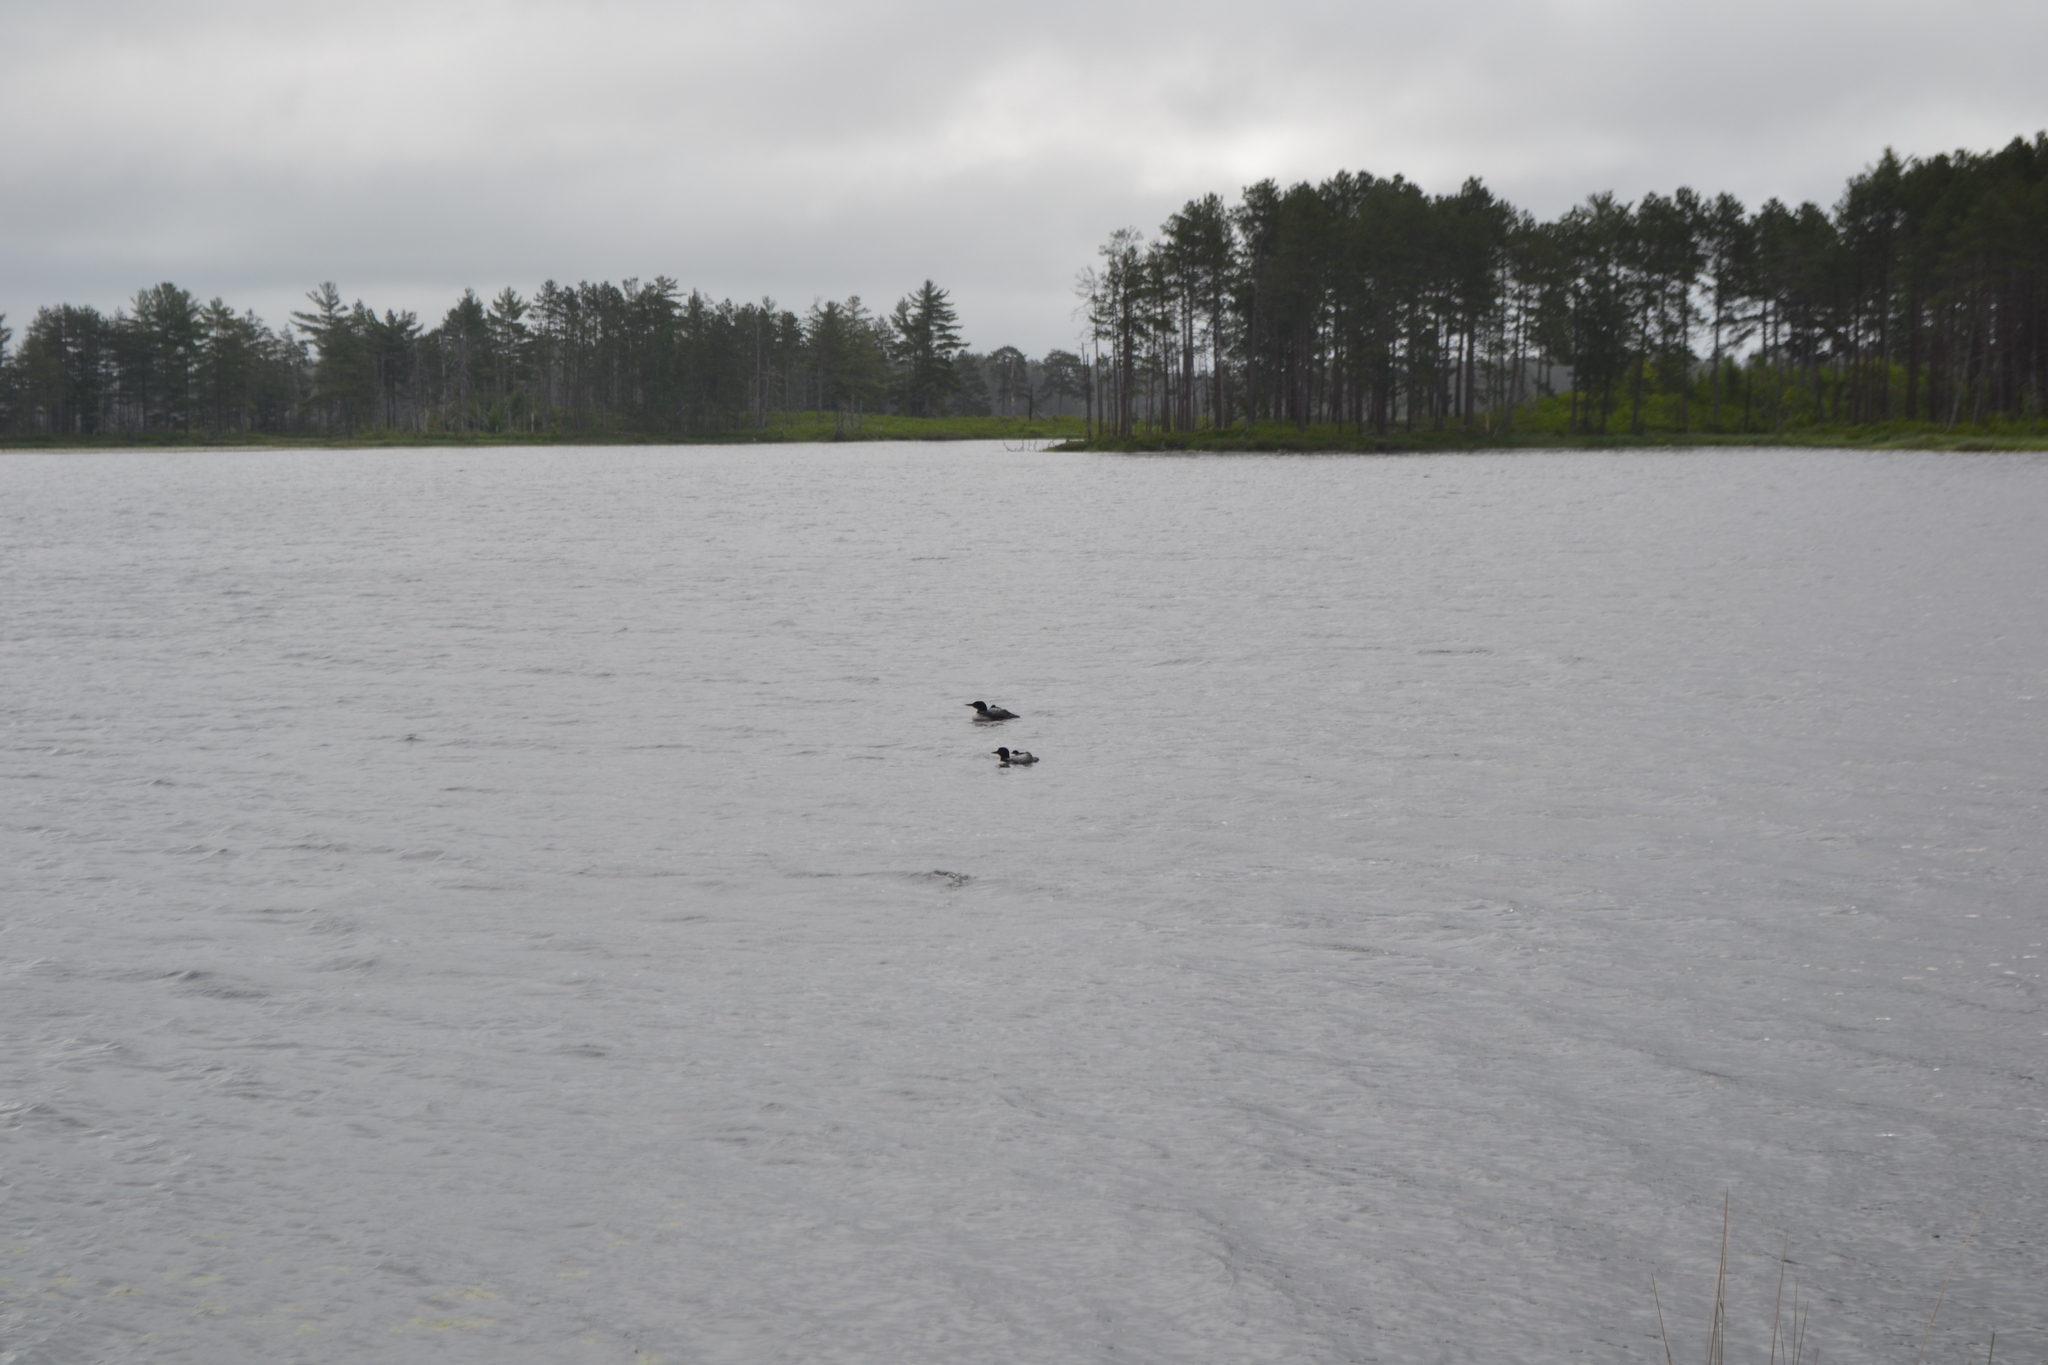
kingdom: Animalia
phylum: Chordata
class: Aves
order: Gaviiformes
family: Gaviidae
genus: Gavia
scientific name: Gavia immer
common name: Common loon
